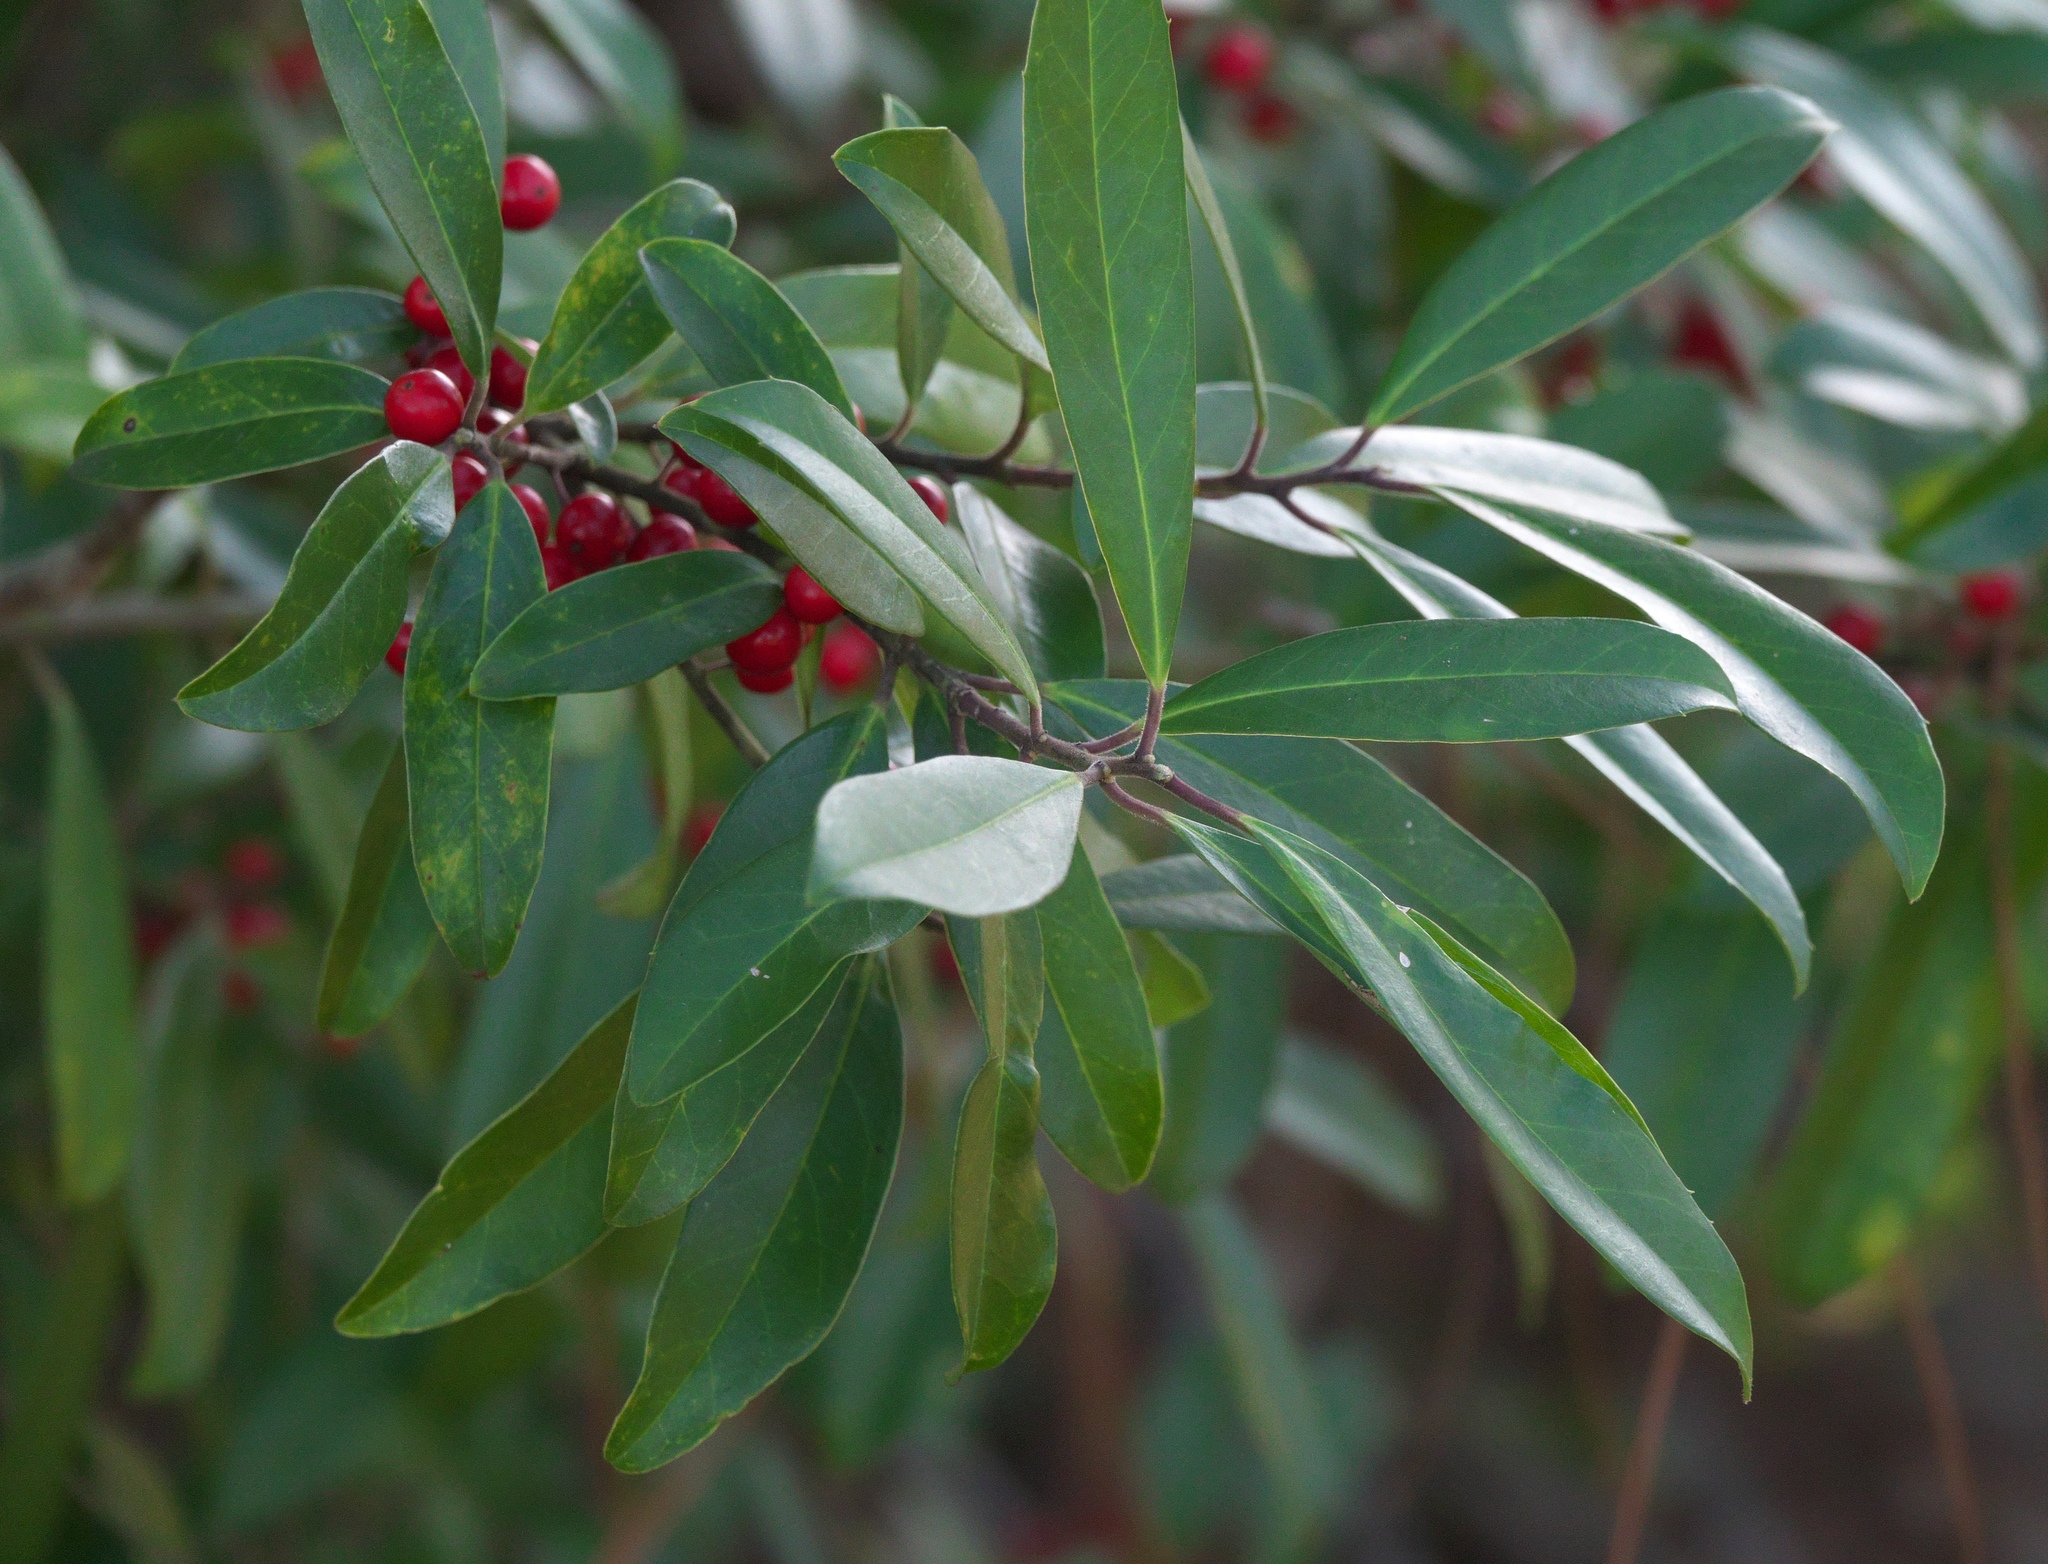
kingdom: Plantae
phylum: Tracheophyta
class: Magnoliopsida
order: Aquifoliales
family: Aquifoliaceae
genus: Ilex
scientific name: Ilex cassine
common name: Dahoon
